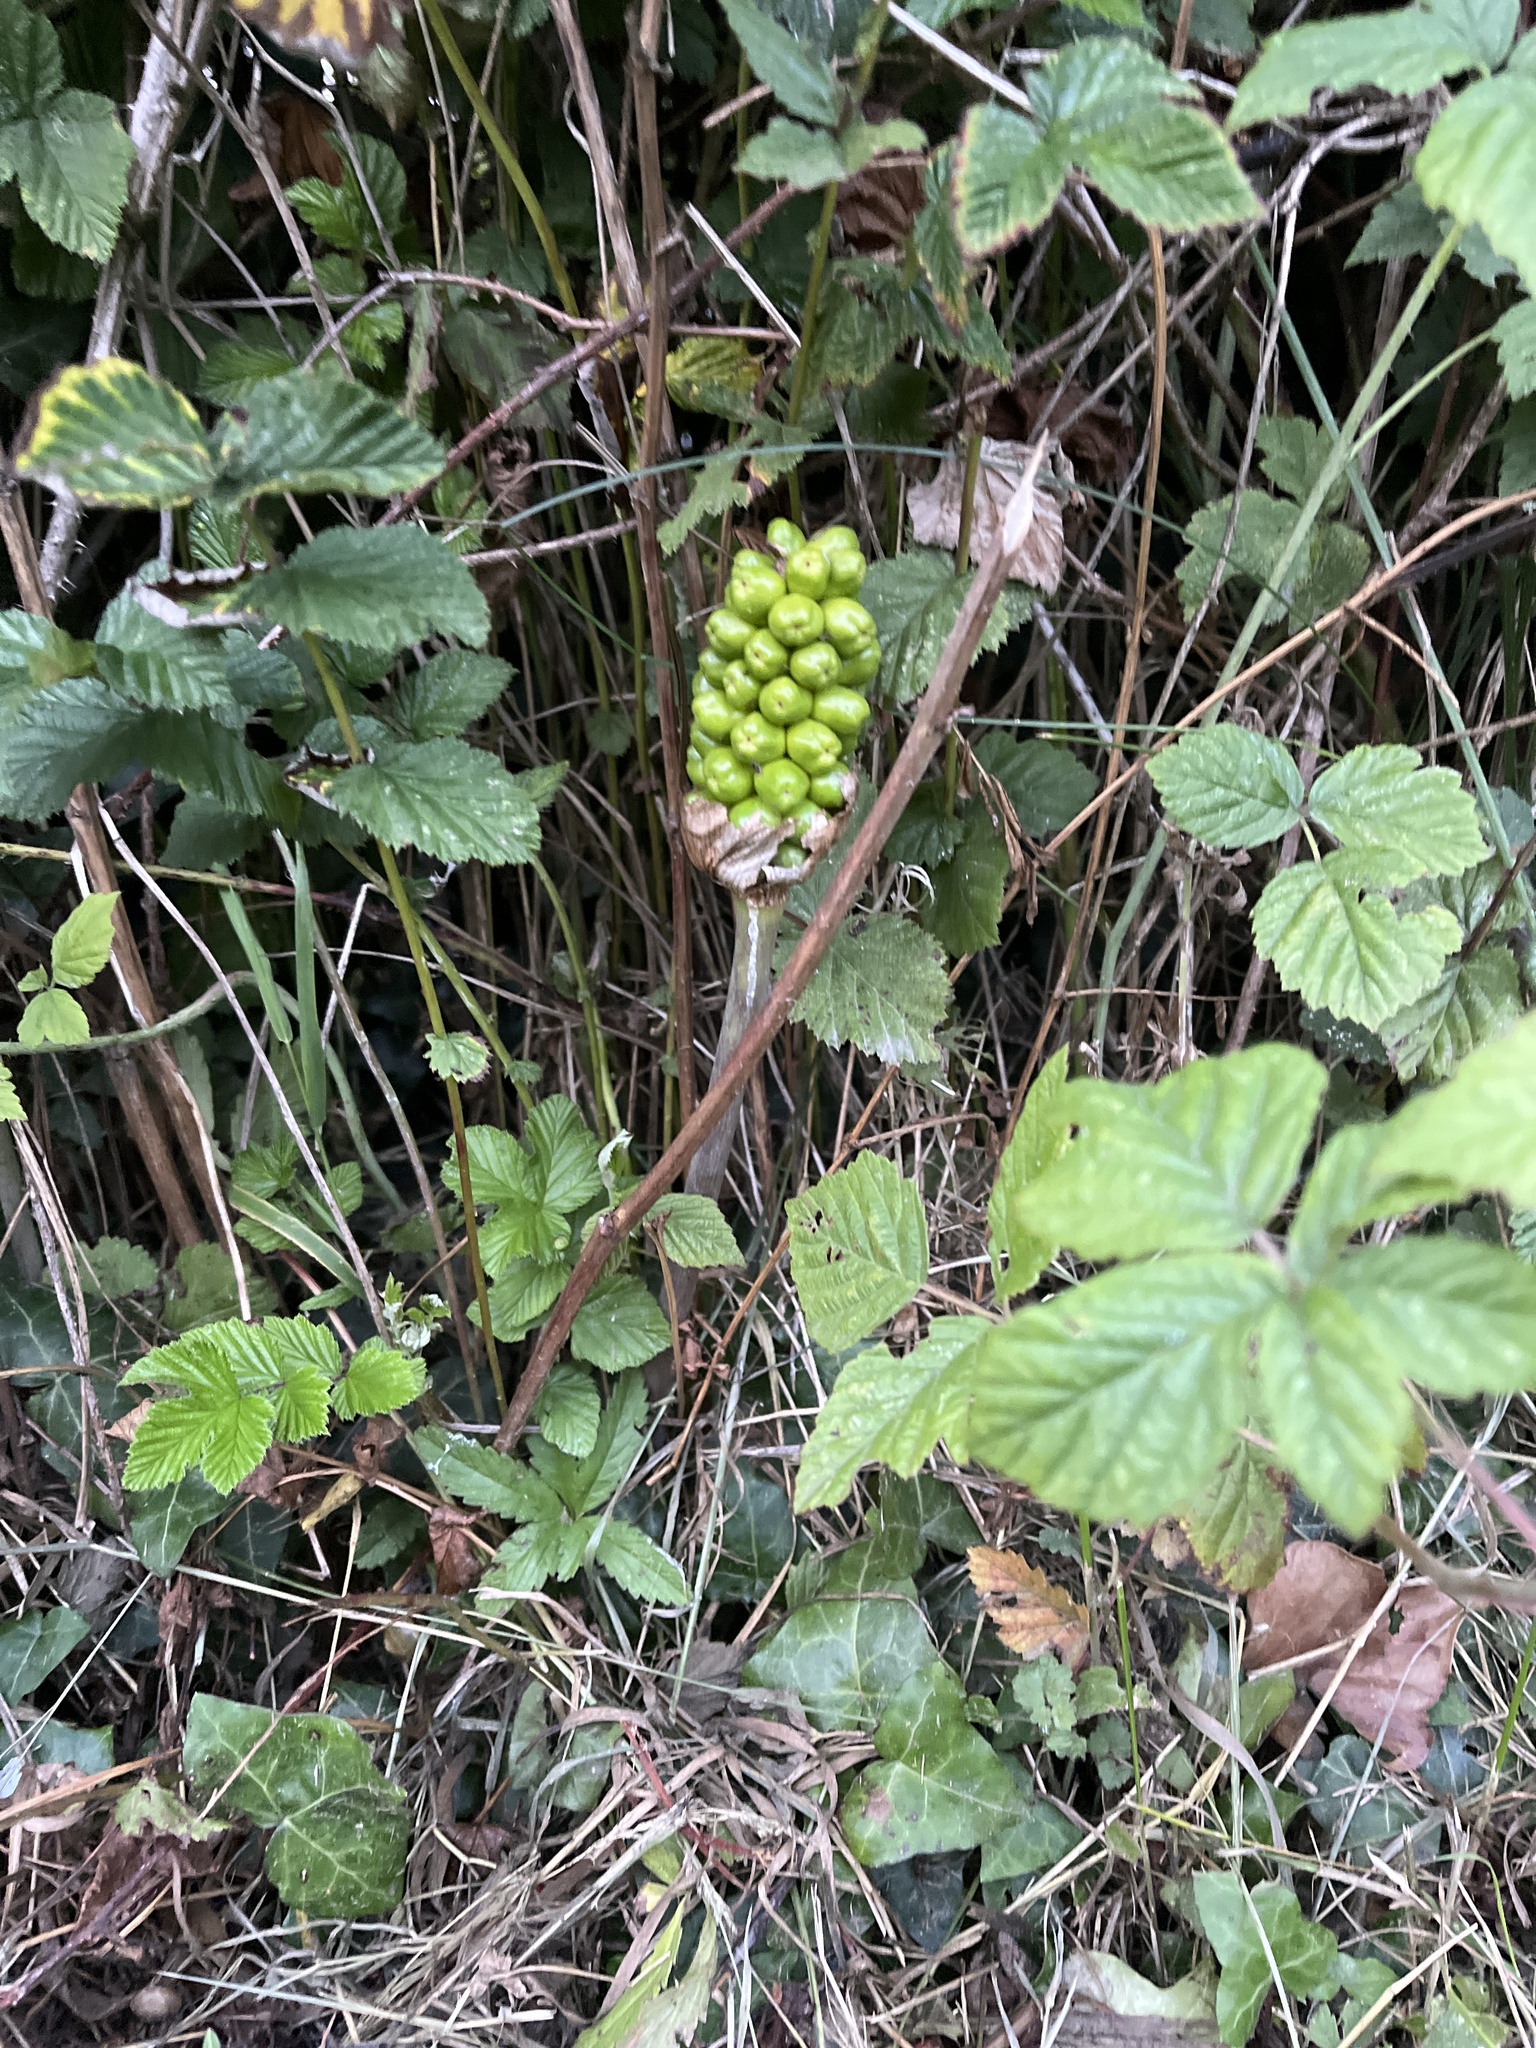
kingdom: Plantae
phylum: Tracheophyta
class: Liliopsida
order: Alismatales
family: Araceae
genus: Arum
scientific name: Arum maculatum
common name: Lords-and-ladies
